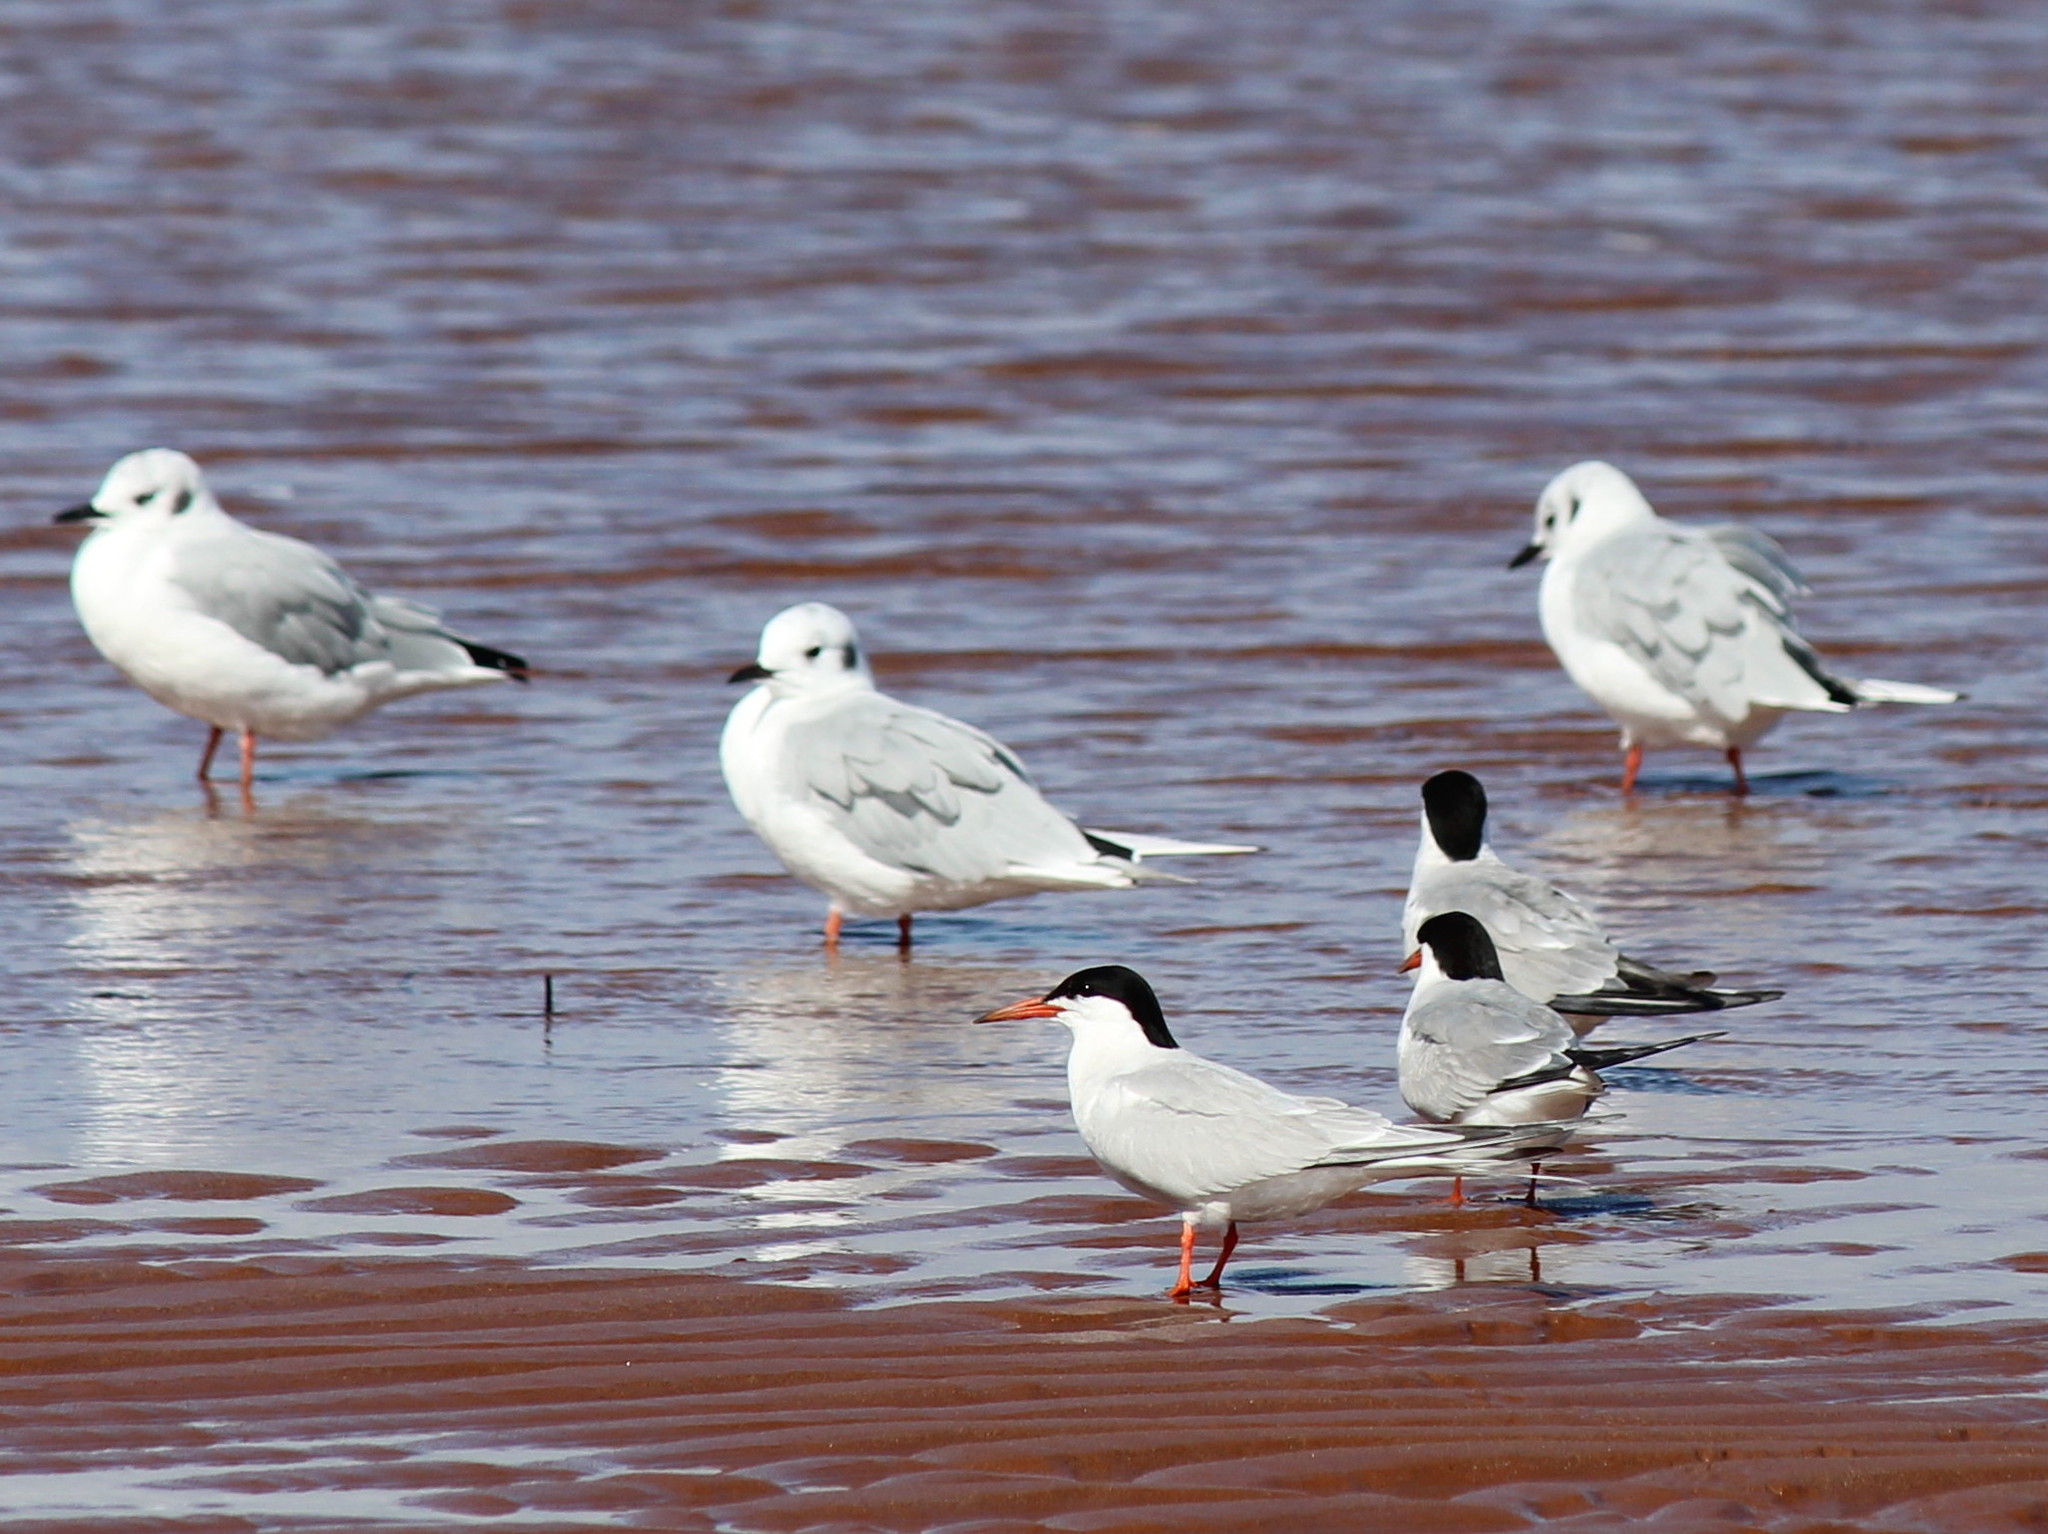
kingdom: Animalia
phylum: Chordata
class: Aves
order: Charadriiformes
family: Laridae
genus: Sterna
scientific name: Sterna hirundo
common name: Common tern
